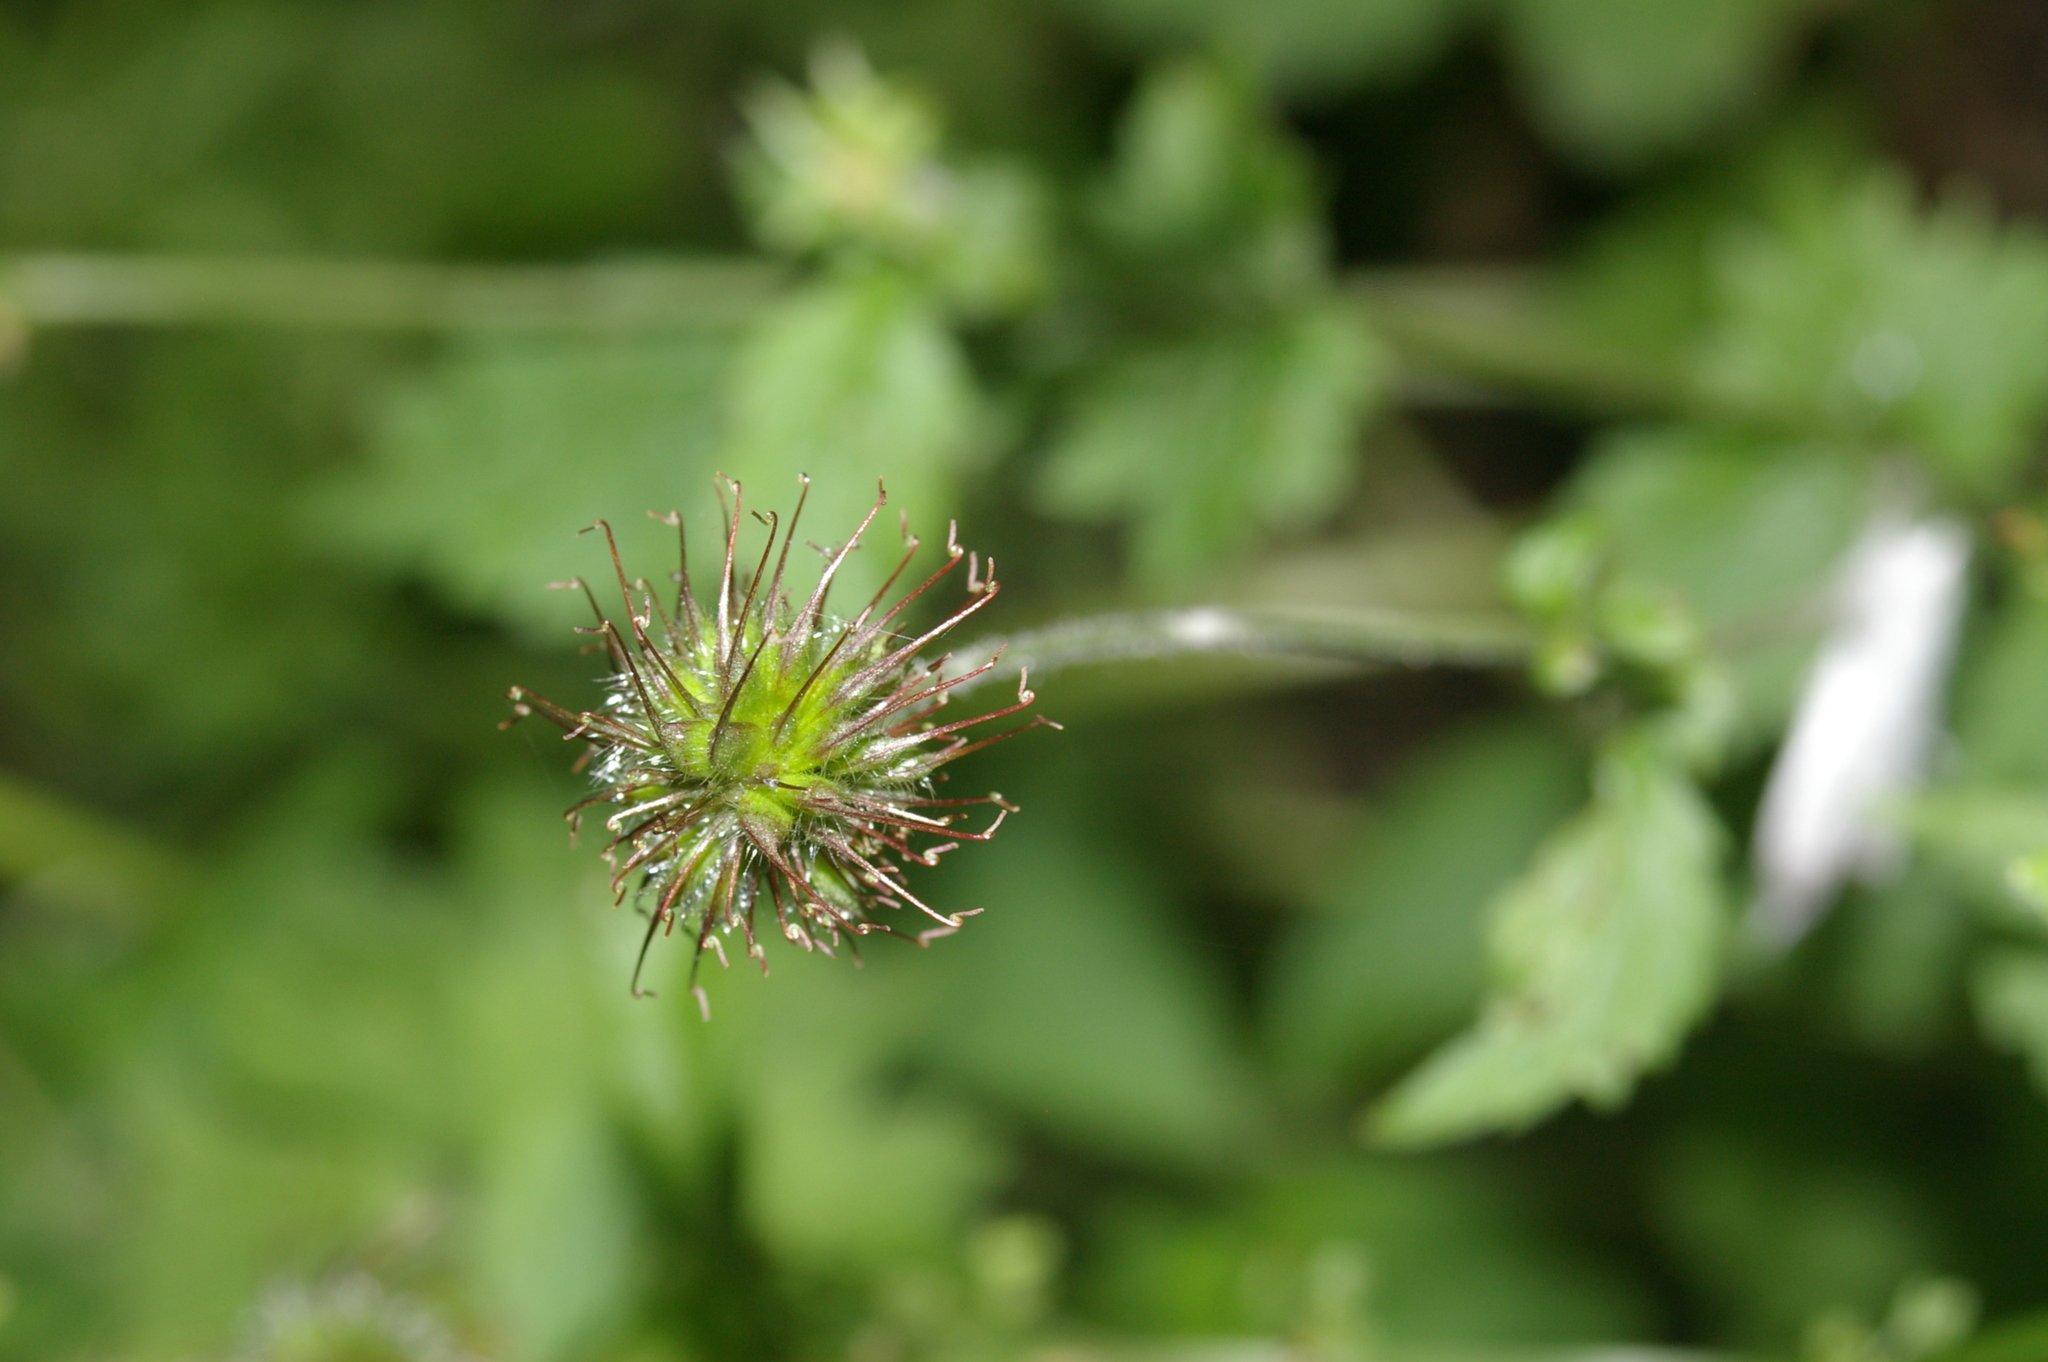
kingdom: Plantae
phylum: Tracheophyta
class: Magnoliopsida
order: Rosales
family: Rosaceae
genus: Geum
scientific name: Geum urbanum
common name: Wood avens
